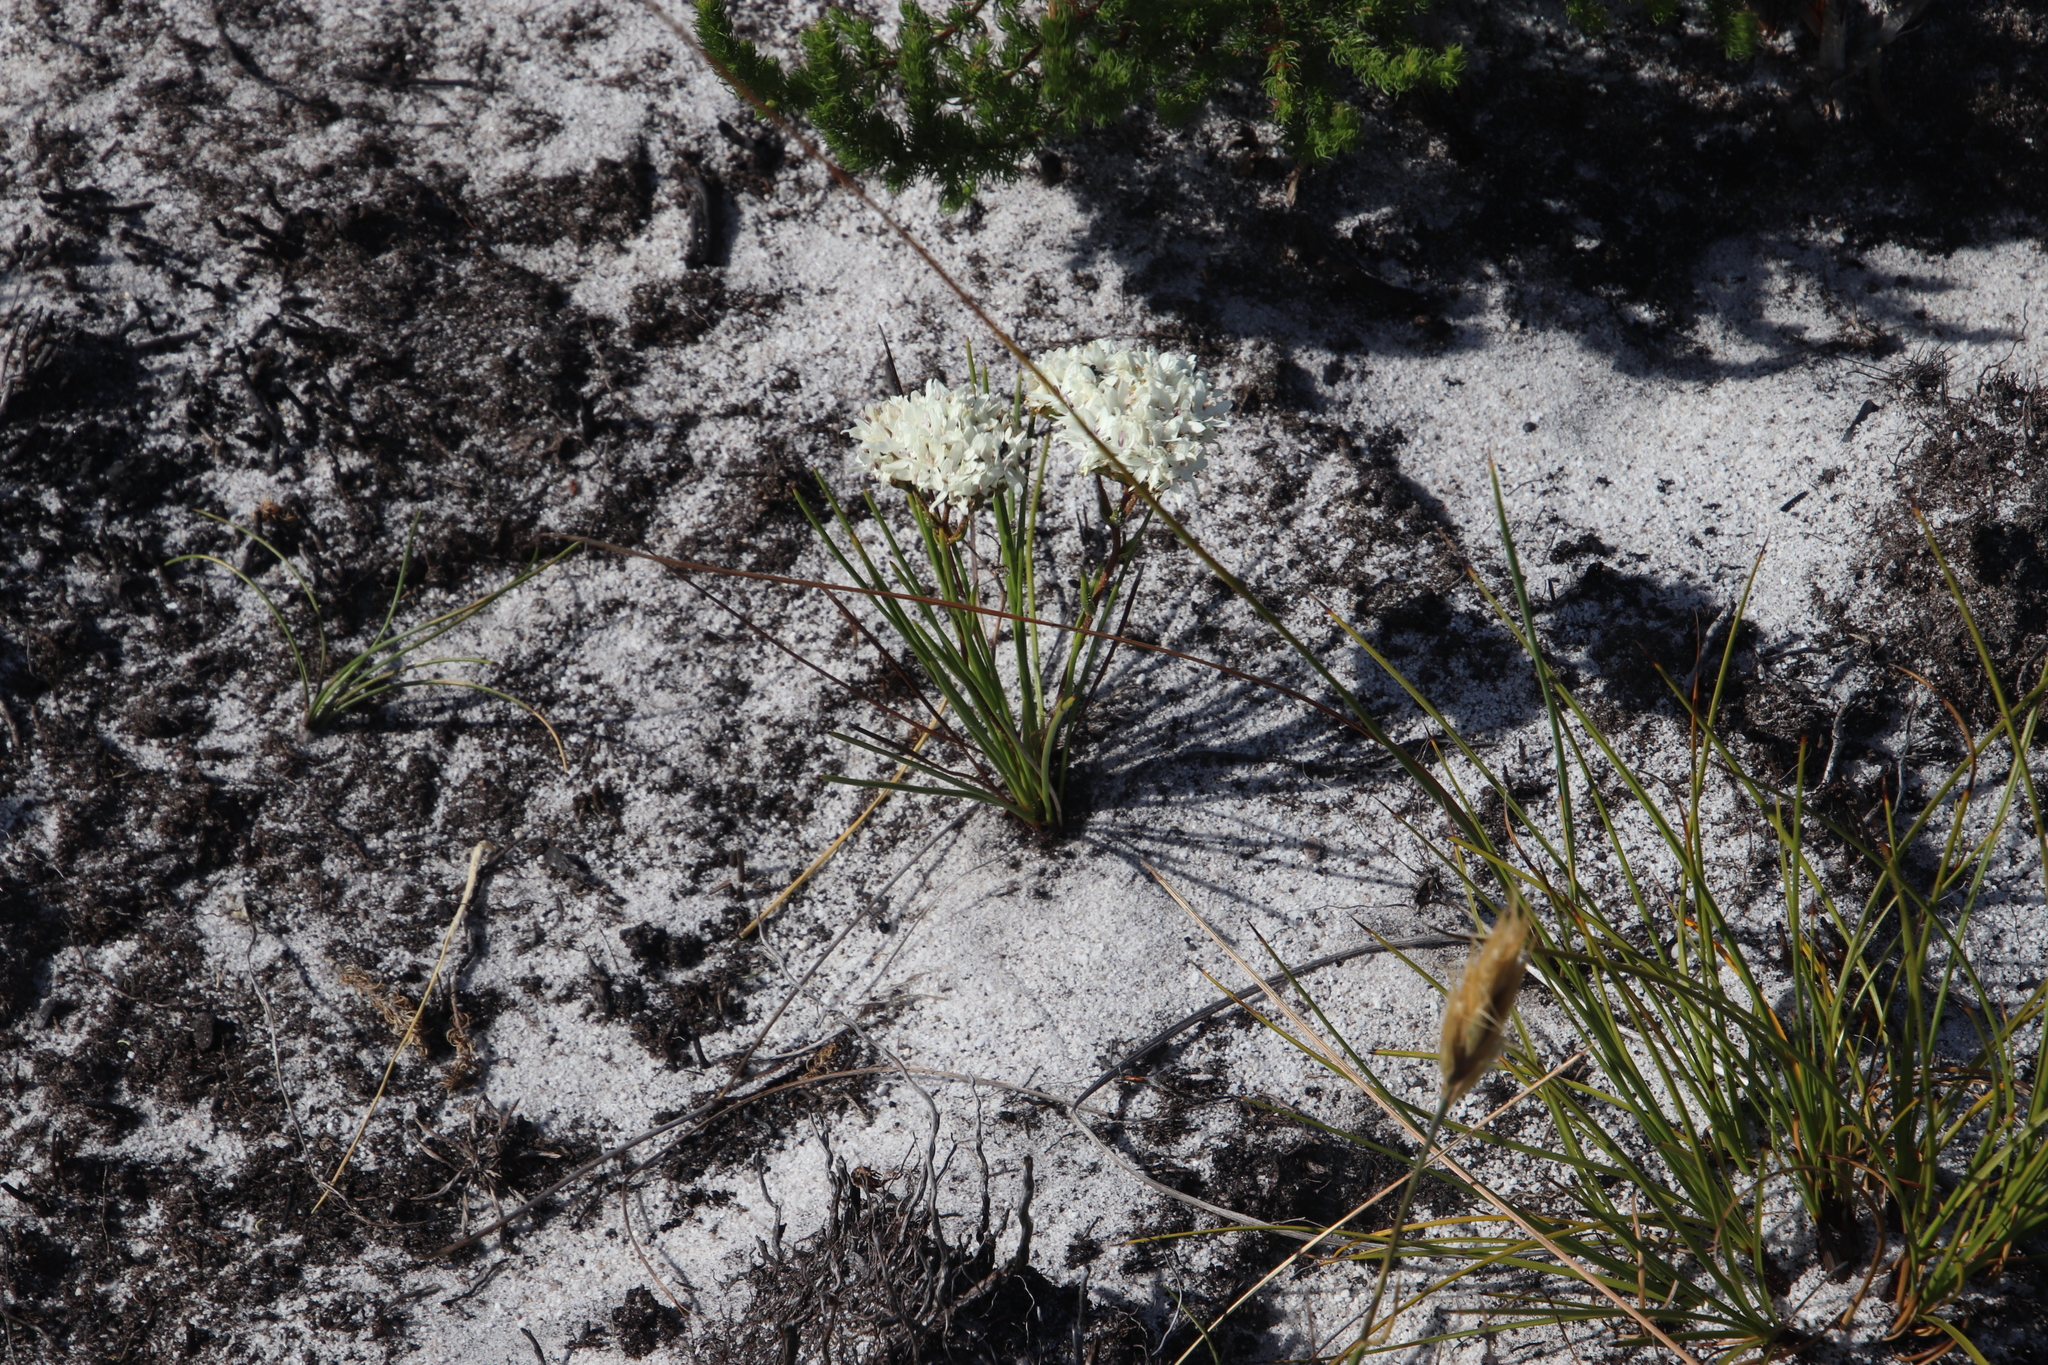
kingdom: Plantae
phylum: Tracheophyta
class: Magnoliopsida
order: Asterales
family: Asteraceae
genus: Corymbium
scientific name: Corymbium africanum
